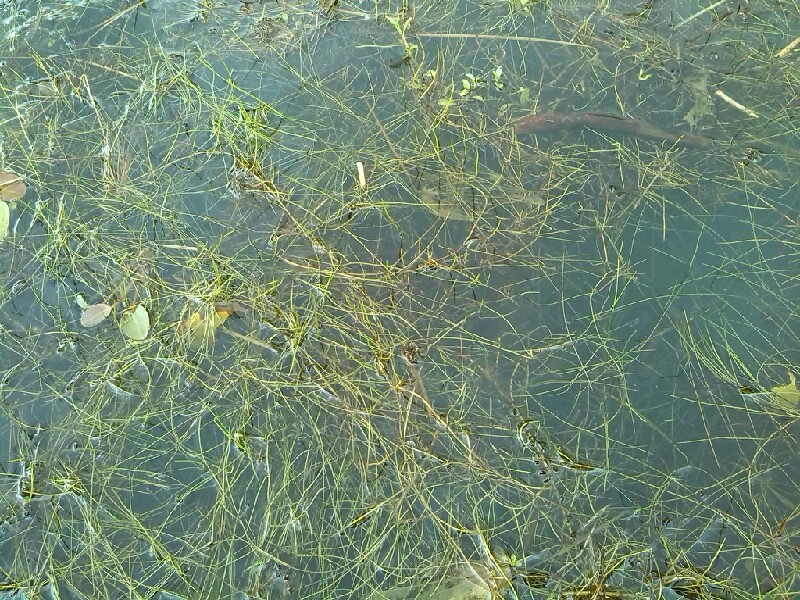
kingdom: Plantae
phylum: Tracheophyta
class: Polypodiopsida
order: Salviniales
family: Marsileaceae
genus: Pilularia
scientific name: Pilularia globulifera
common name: Pillwort
